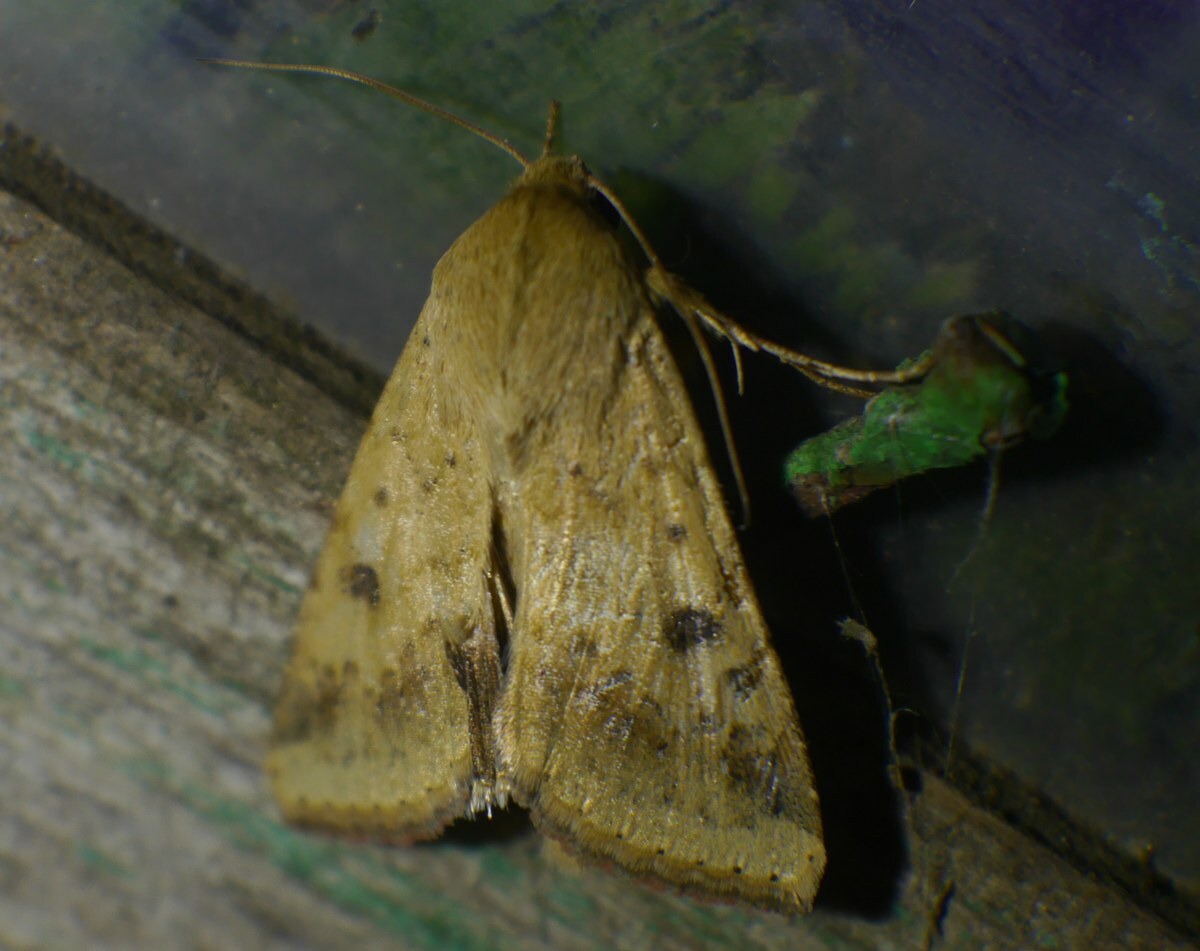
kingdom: Animalia
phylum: Arthropoda
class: Insecta
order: Lepidoptera
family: Noctuidae
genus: Helicoverpa
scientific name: Helicoverpa armigera
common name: Cotton bollworm
